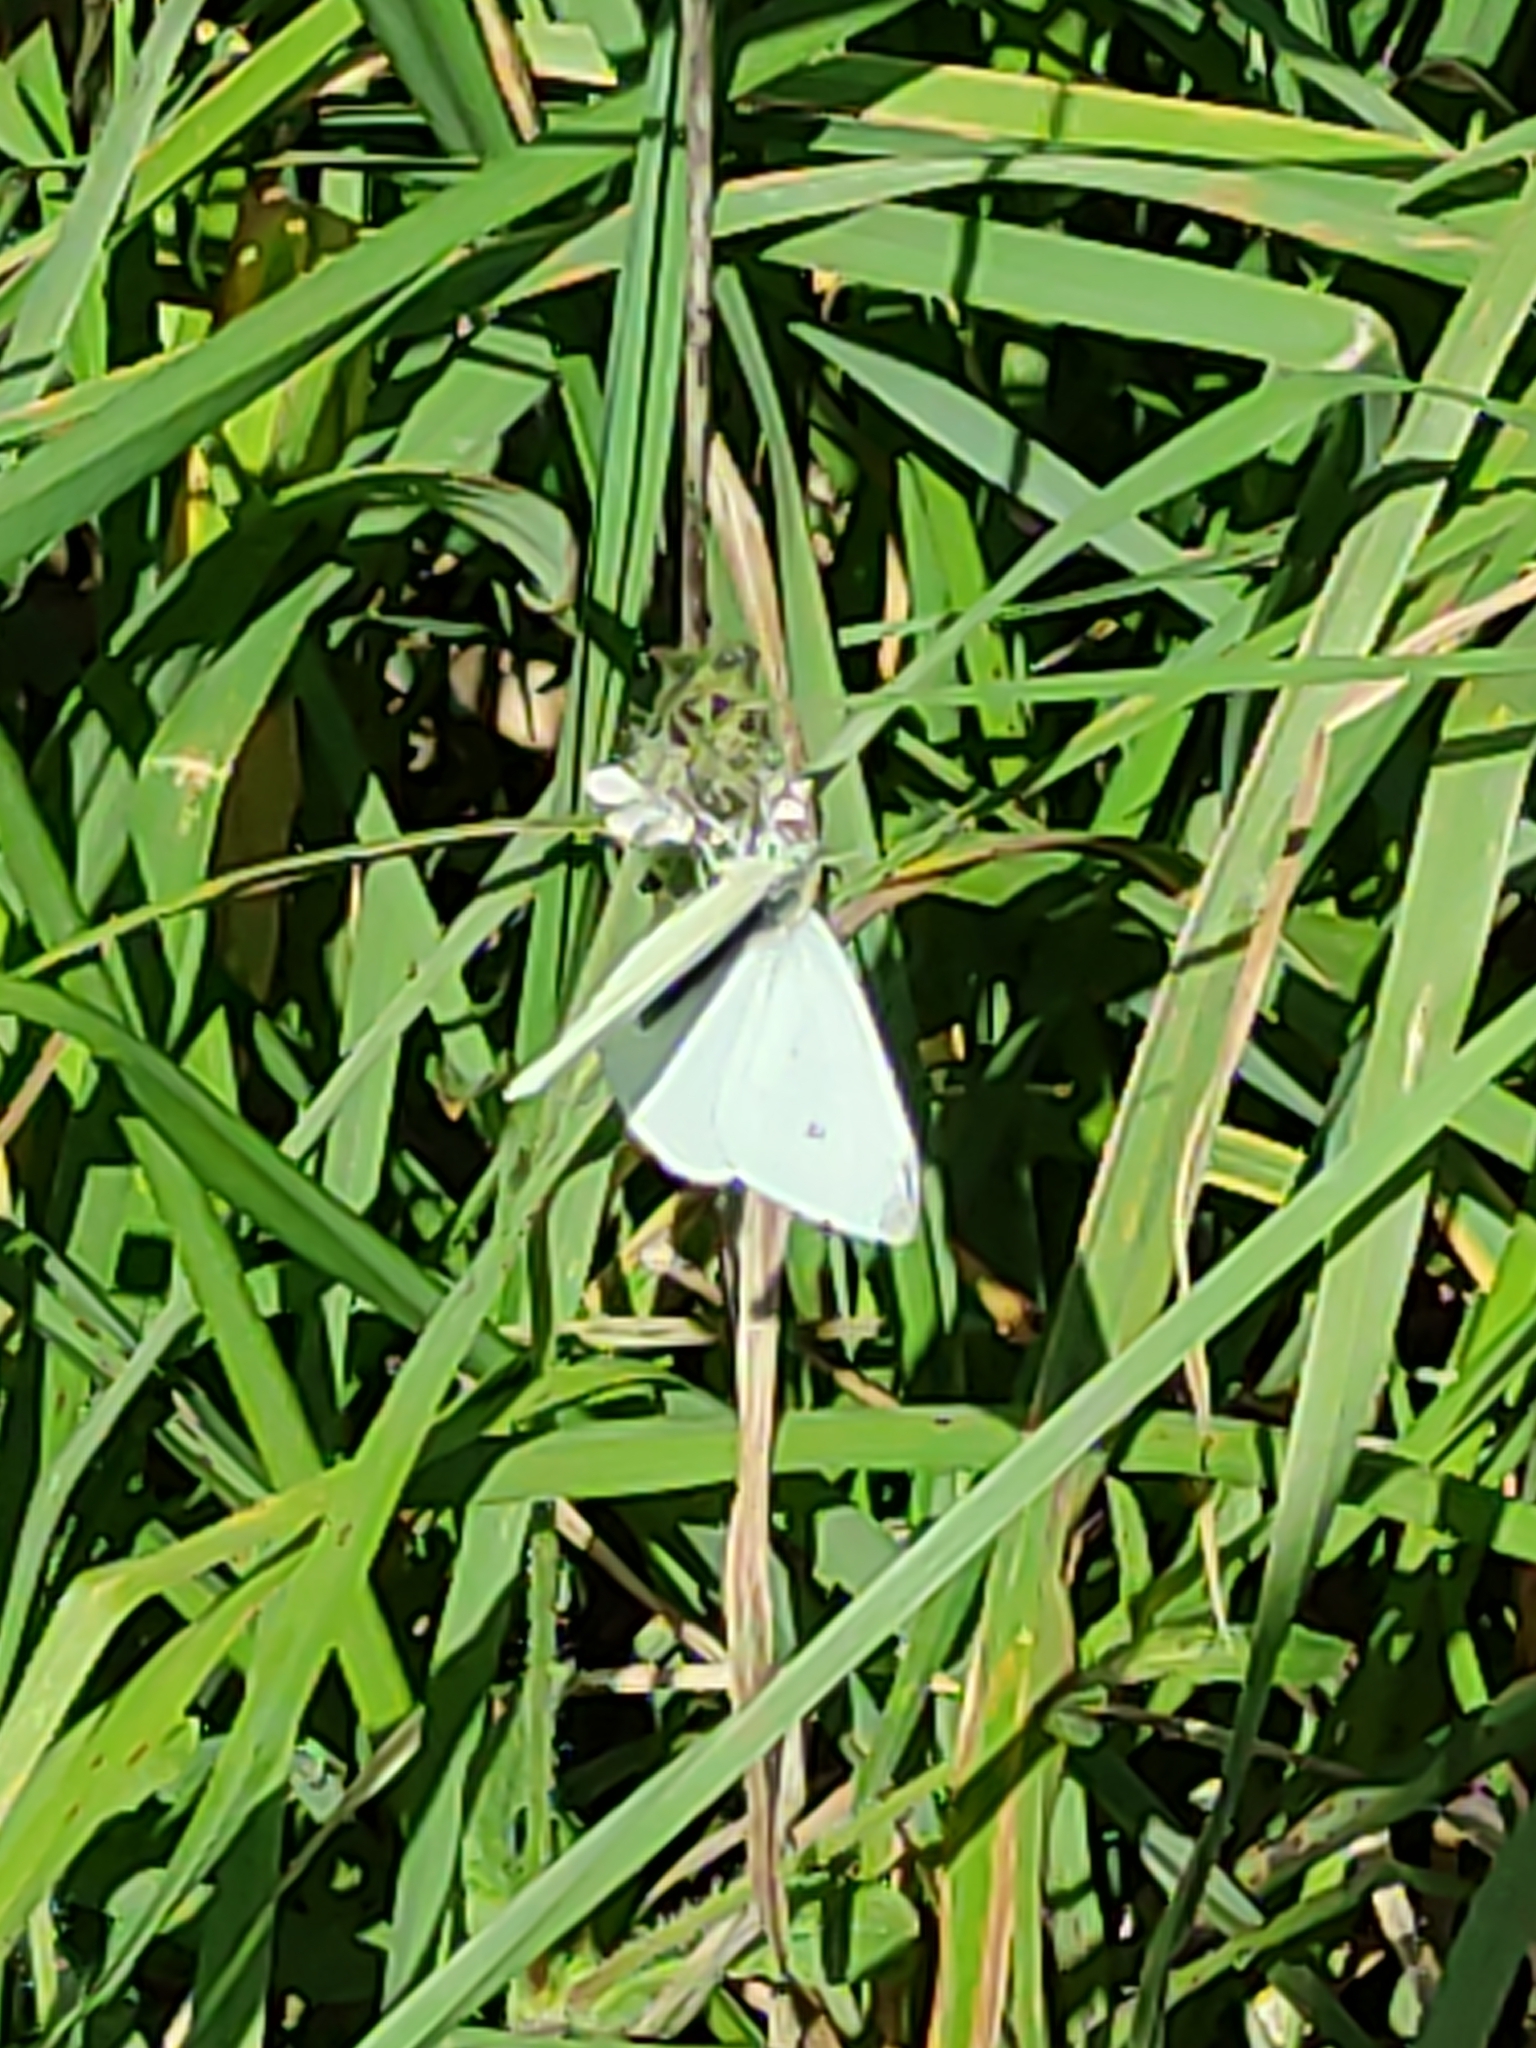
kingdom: Animalia
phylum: Arthropoda
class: Insecta
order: Lepidoptera
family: Pieridae
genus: Pieris
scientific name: Pieris rapae
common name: Small white
